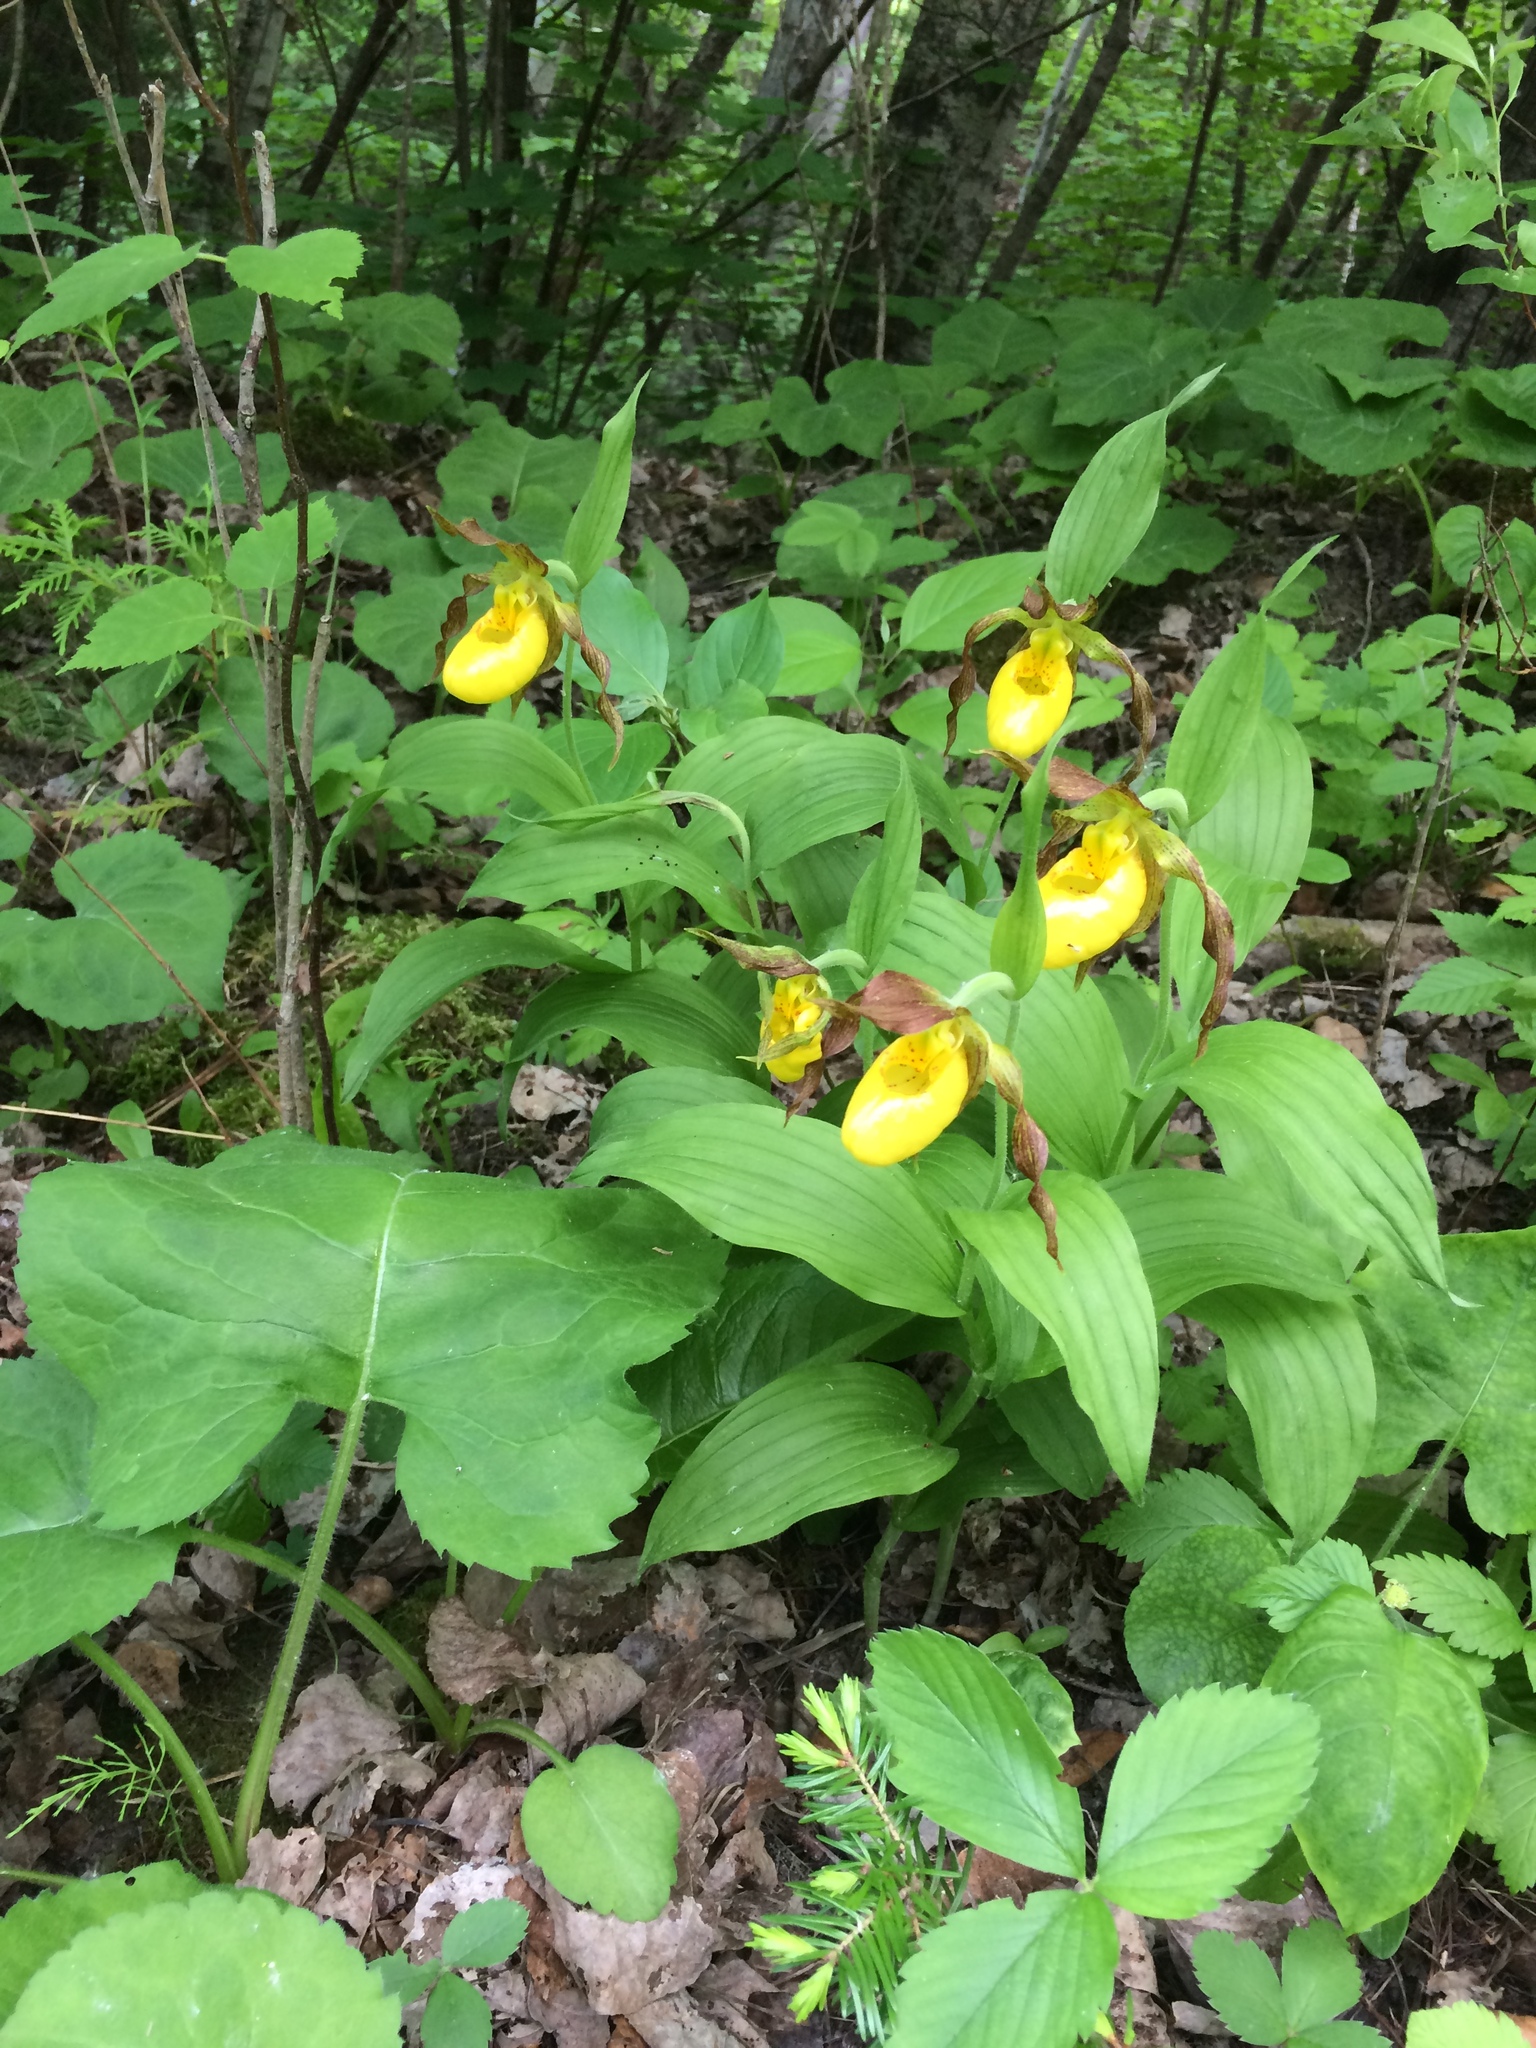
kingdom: Plantae
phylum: Tracheophyta
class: Liliopsida
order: Asparagales
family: Orchidaceae
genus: Cypripedium
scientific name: Cypripedium parviflorum
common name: American yellow lady's-slipper
